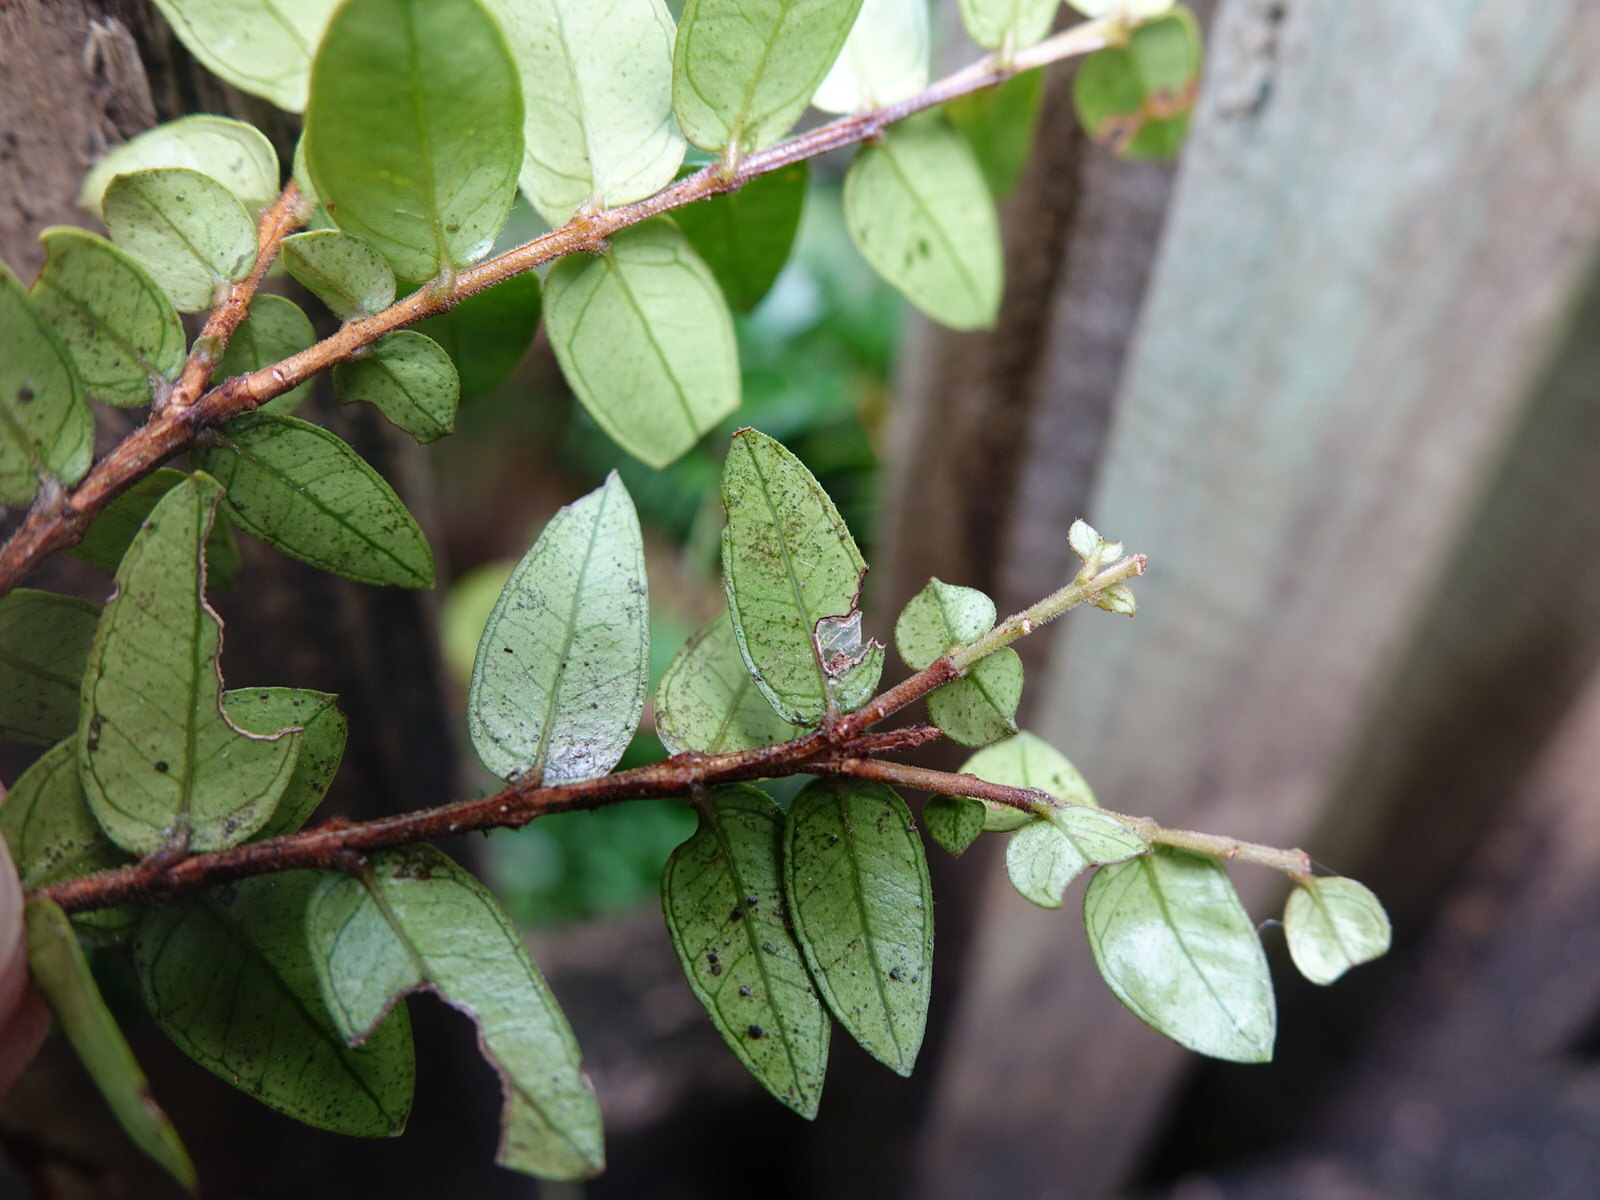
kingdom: Plantae
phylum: Tracheophyta
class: Magnoliopsida
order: Myrtales
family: Myrtaceae
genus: Metrosideros
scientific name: Metrosideros diffusa
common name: Small ratavine
